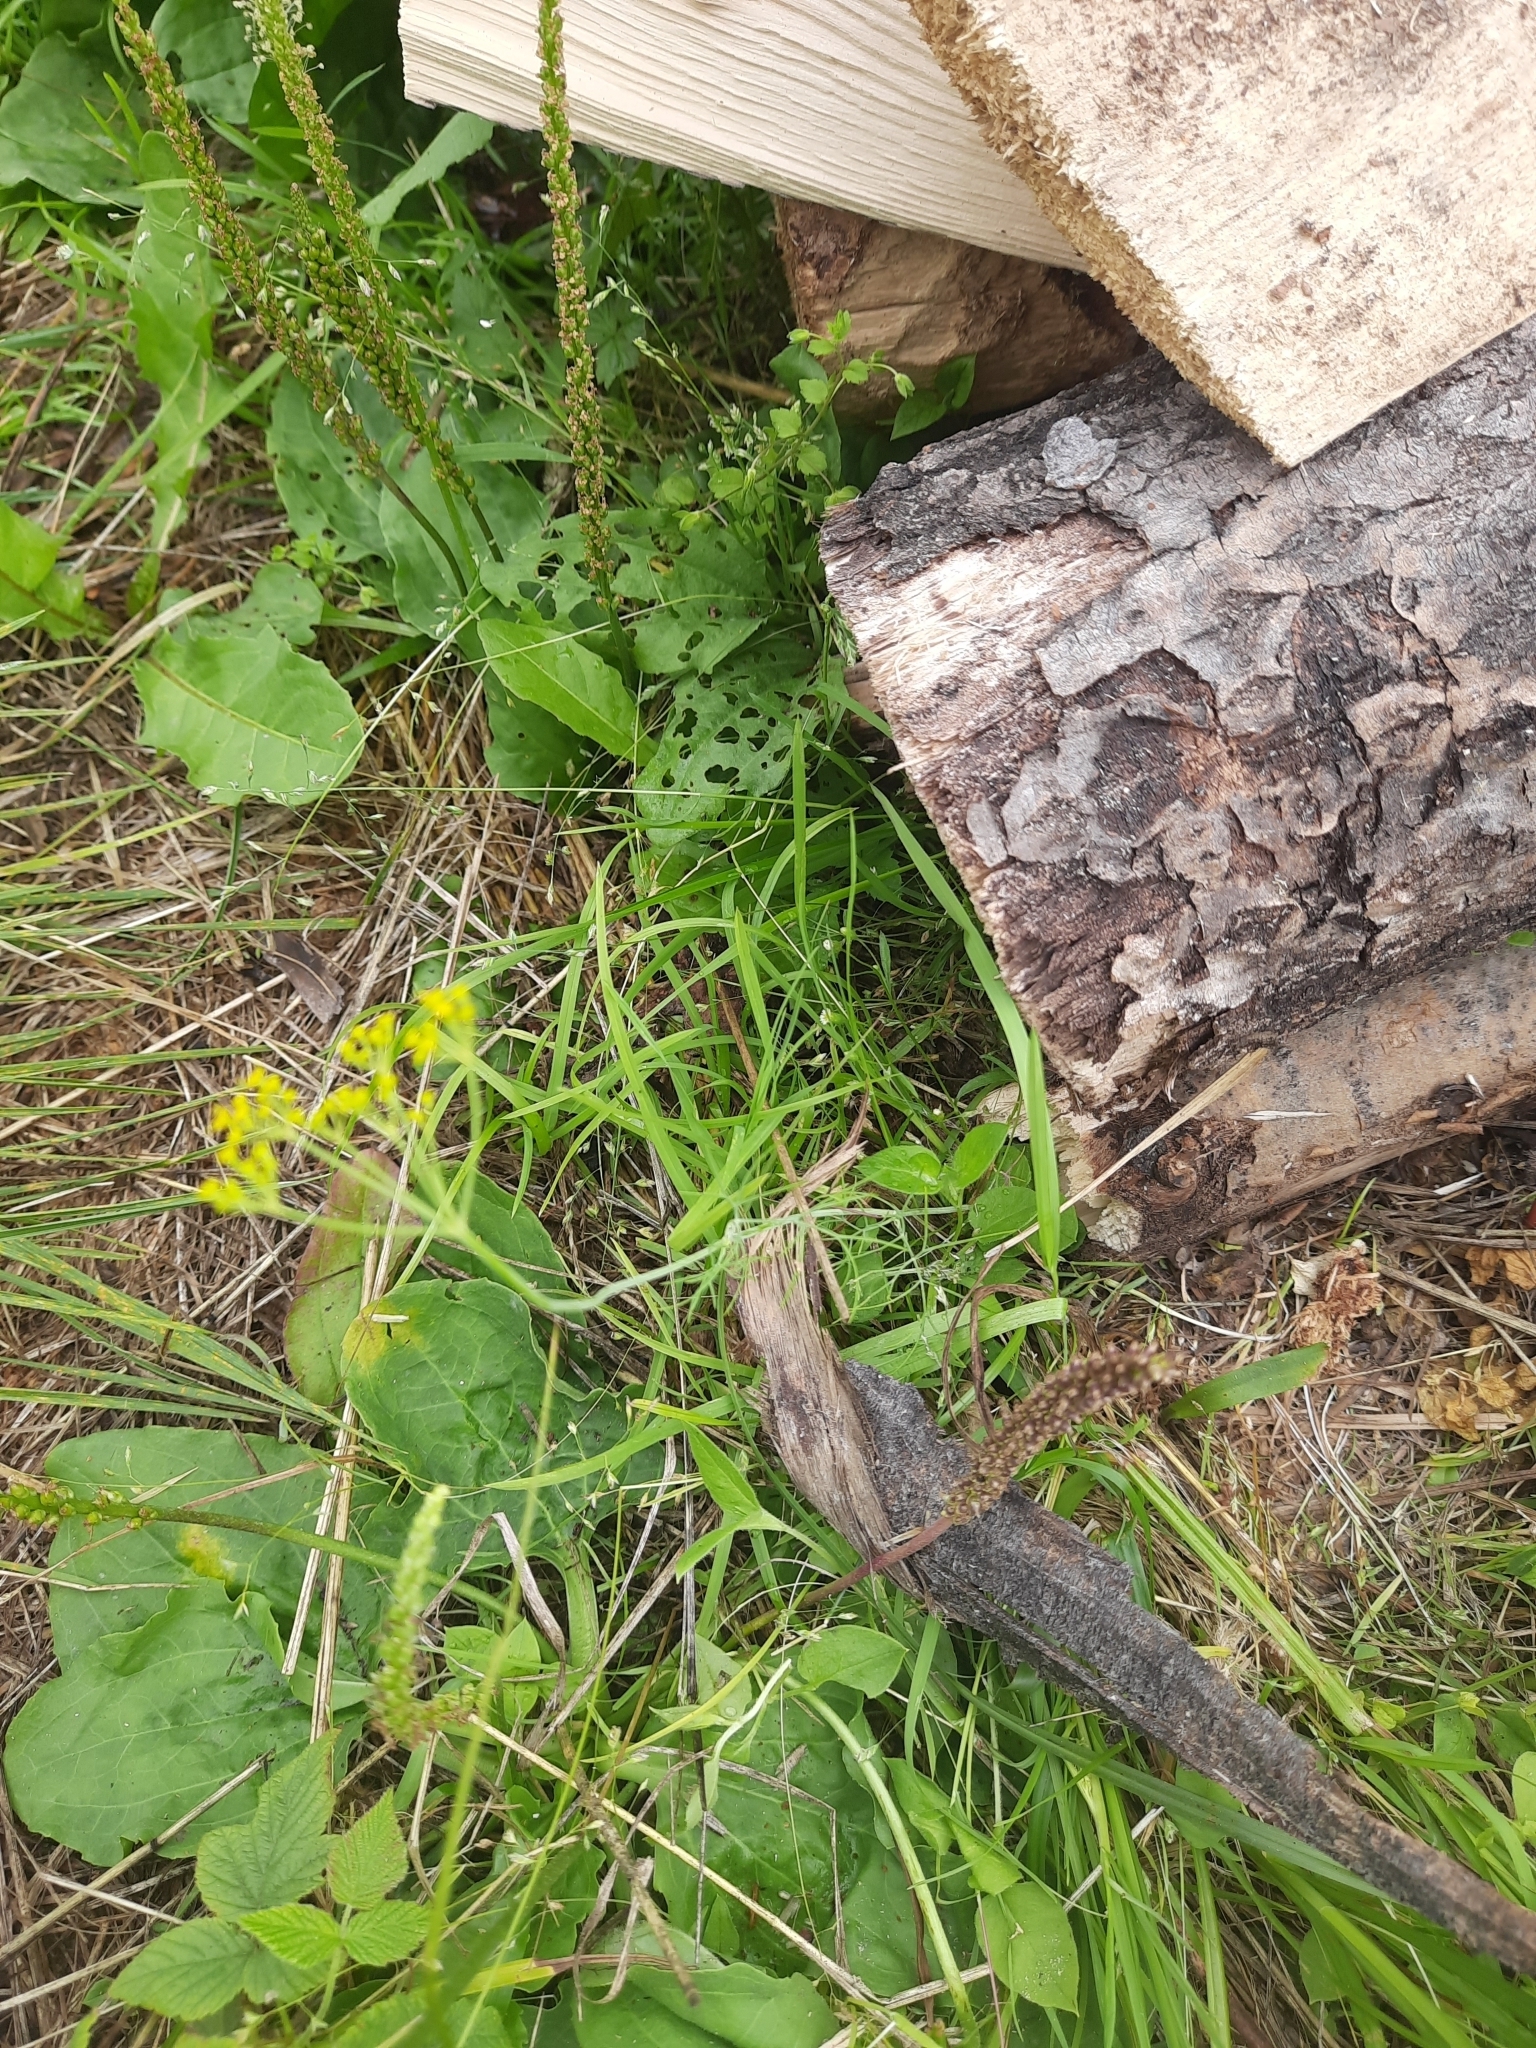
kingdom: Plantae
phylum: Tracheophyta
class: Magnoliopsida
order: Apiales
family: Apiaceae
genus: Anethum
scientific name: Anethum graveolens
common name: Dill
